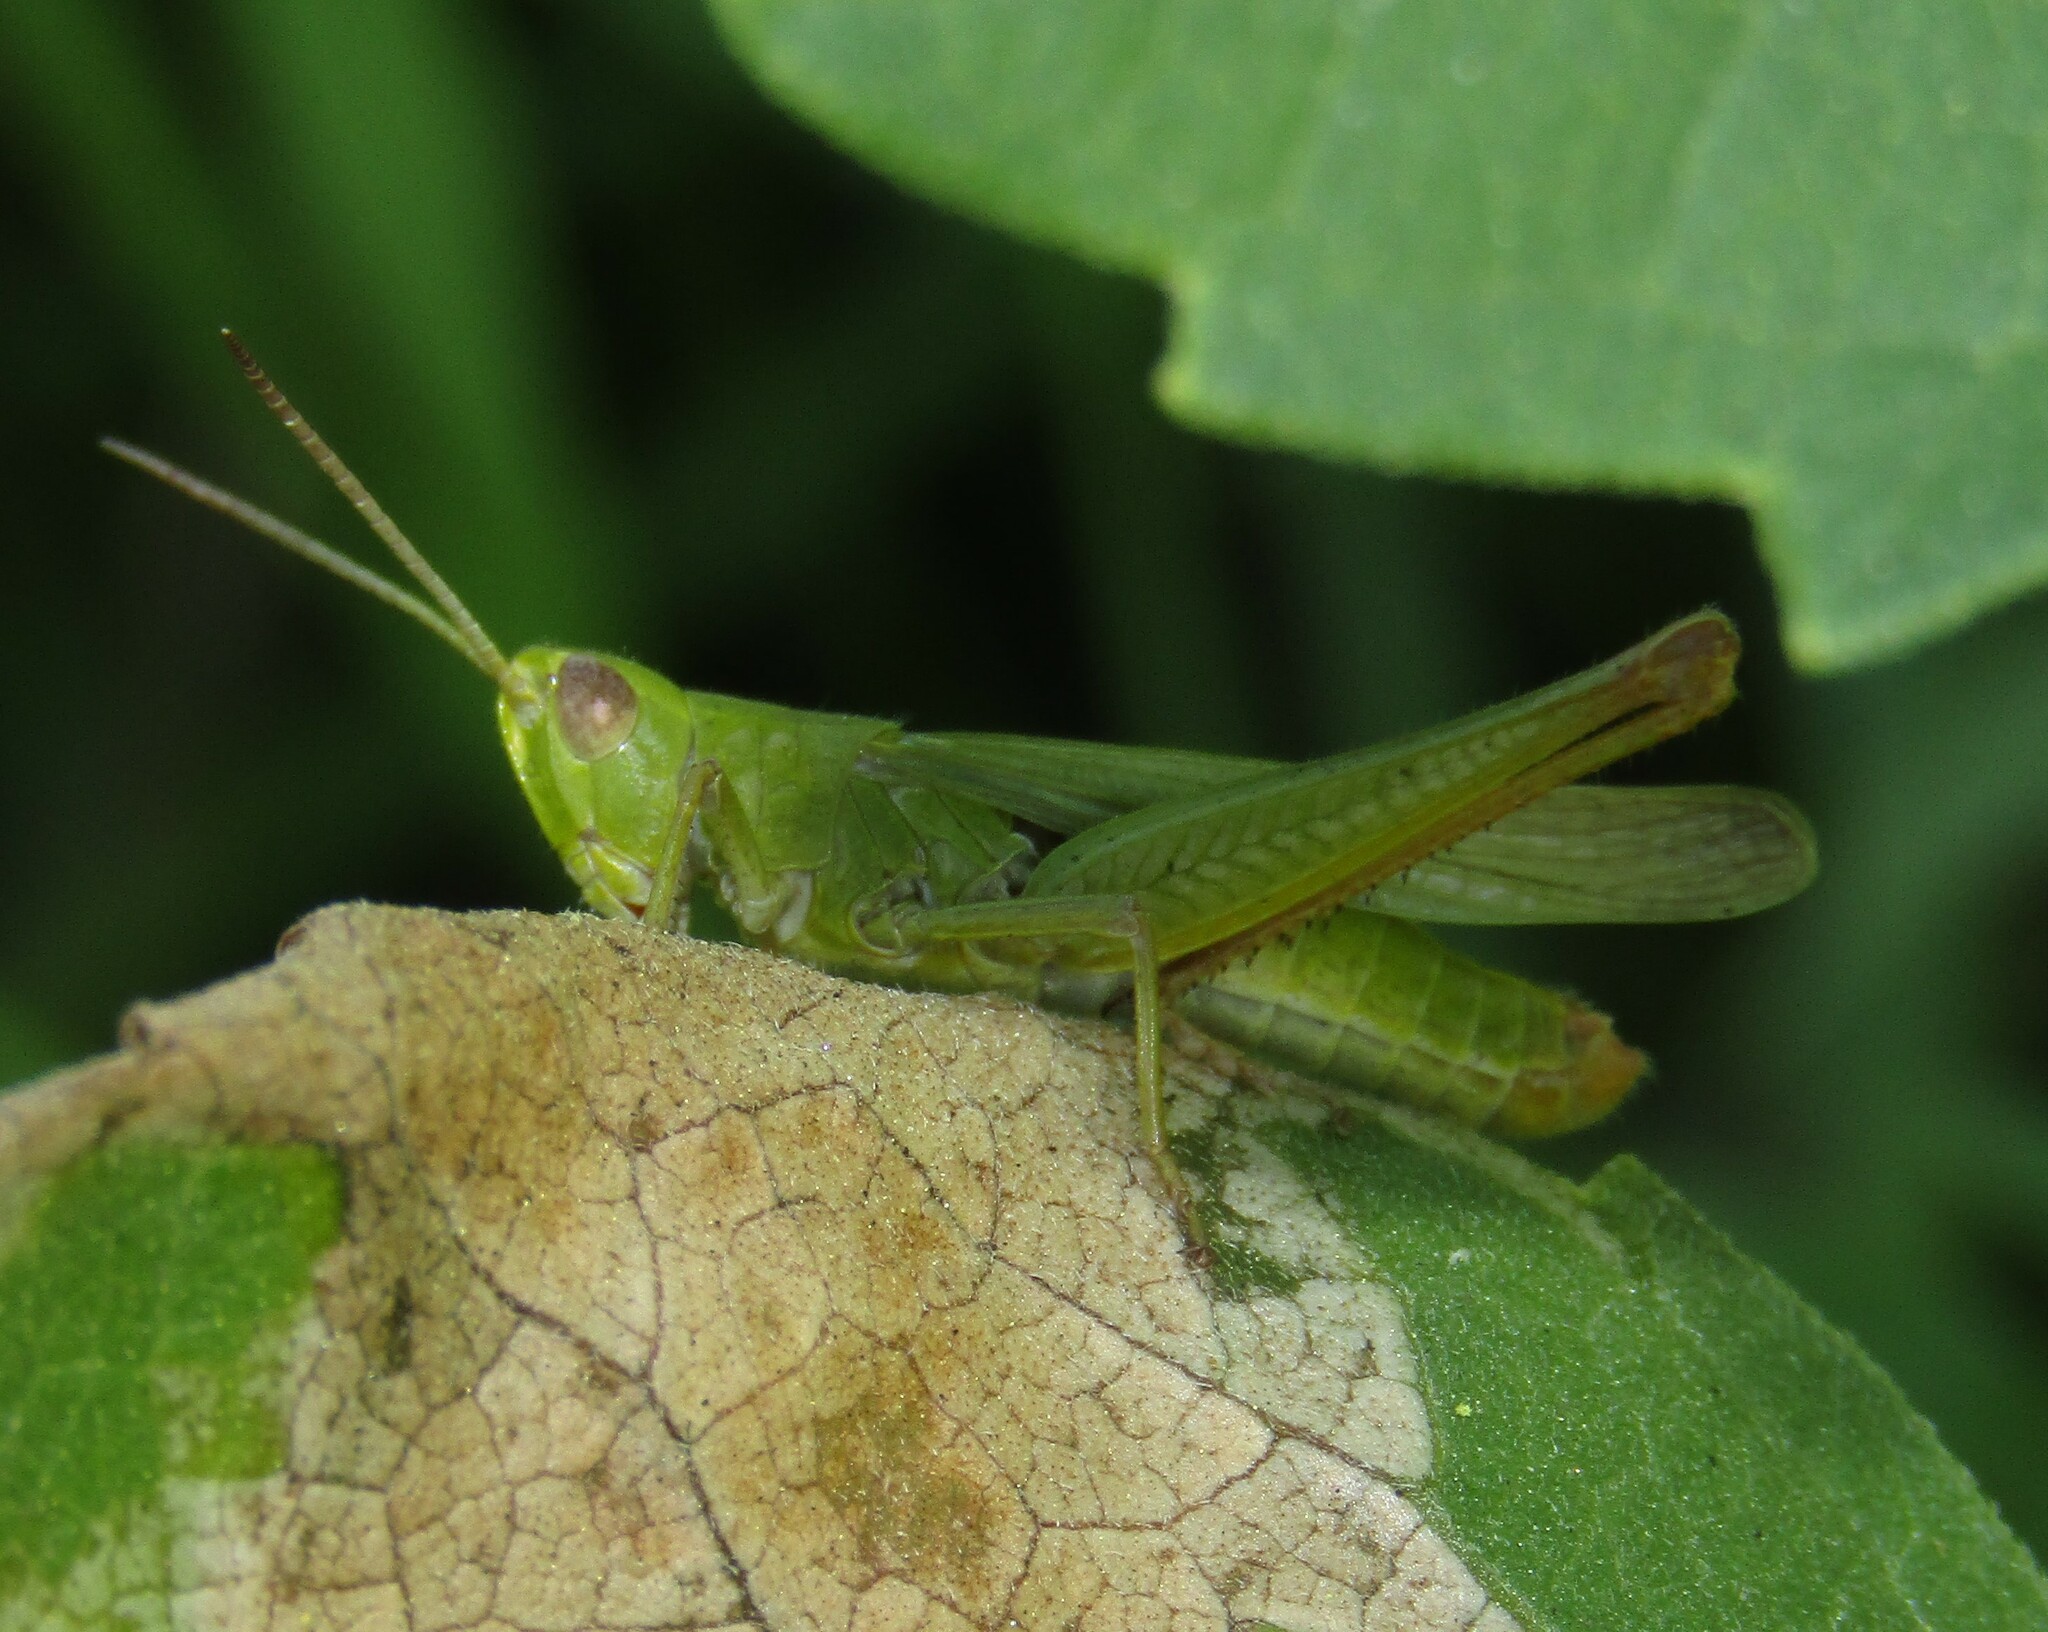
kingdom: Animalia
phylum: Arthropoda
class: Insecta
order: Orthoptera
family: Acrididae
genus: Chorthippus
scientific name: Chorthippus dichrous
